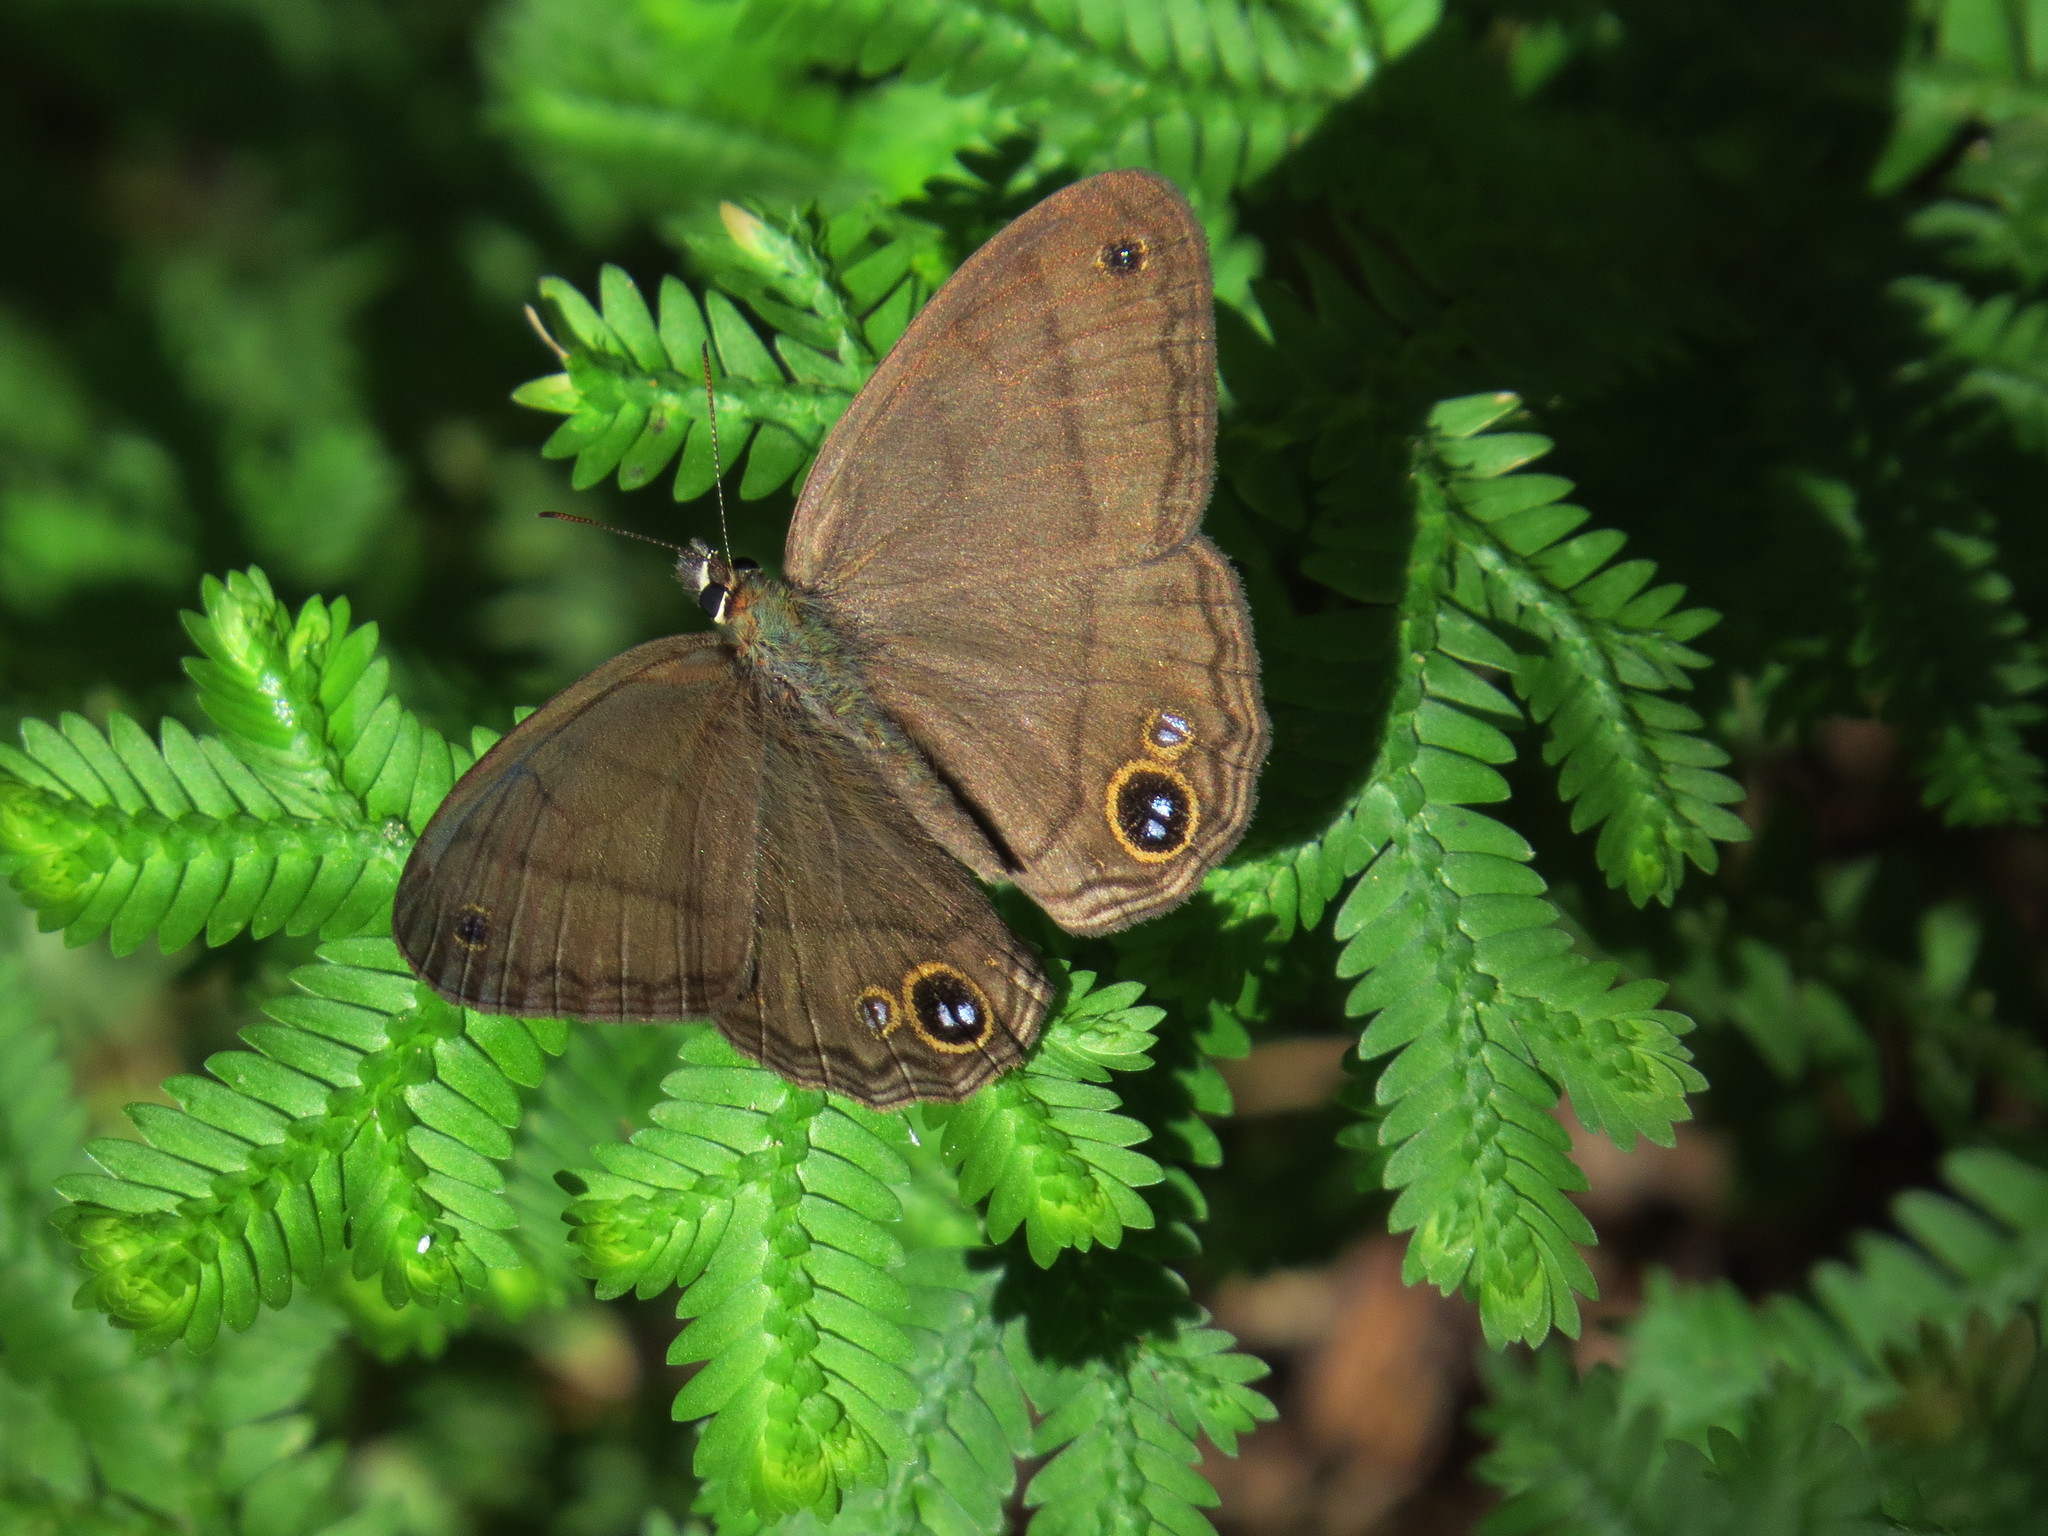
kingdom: Animalia
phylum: Arthropoda
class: Insecta
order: Lepidoptera
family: Nymphalidae
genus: Euptychia
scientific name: Euptychia Cissia pompilia
